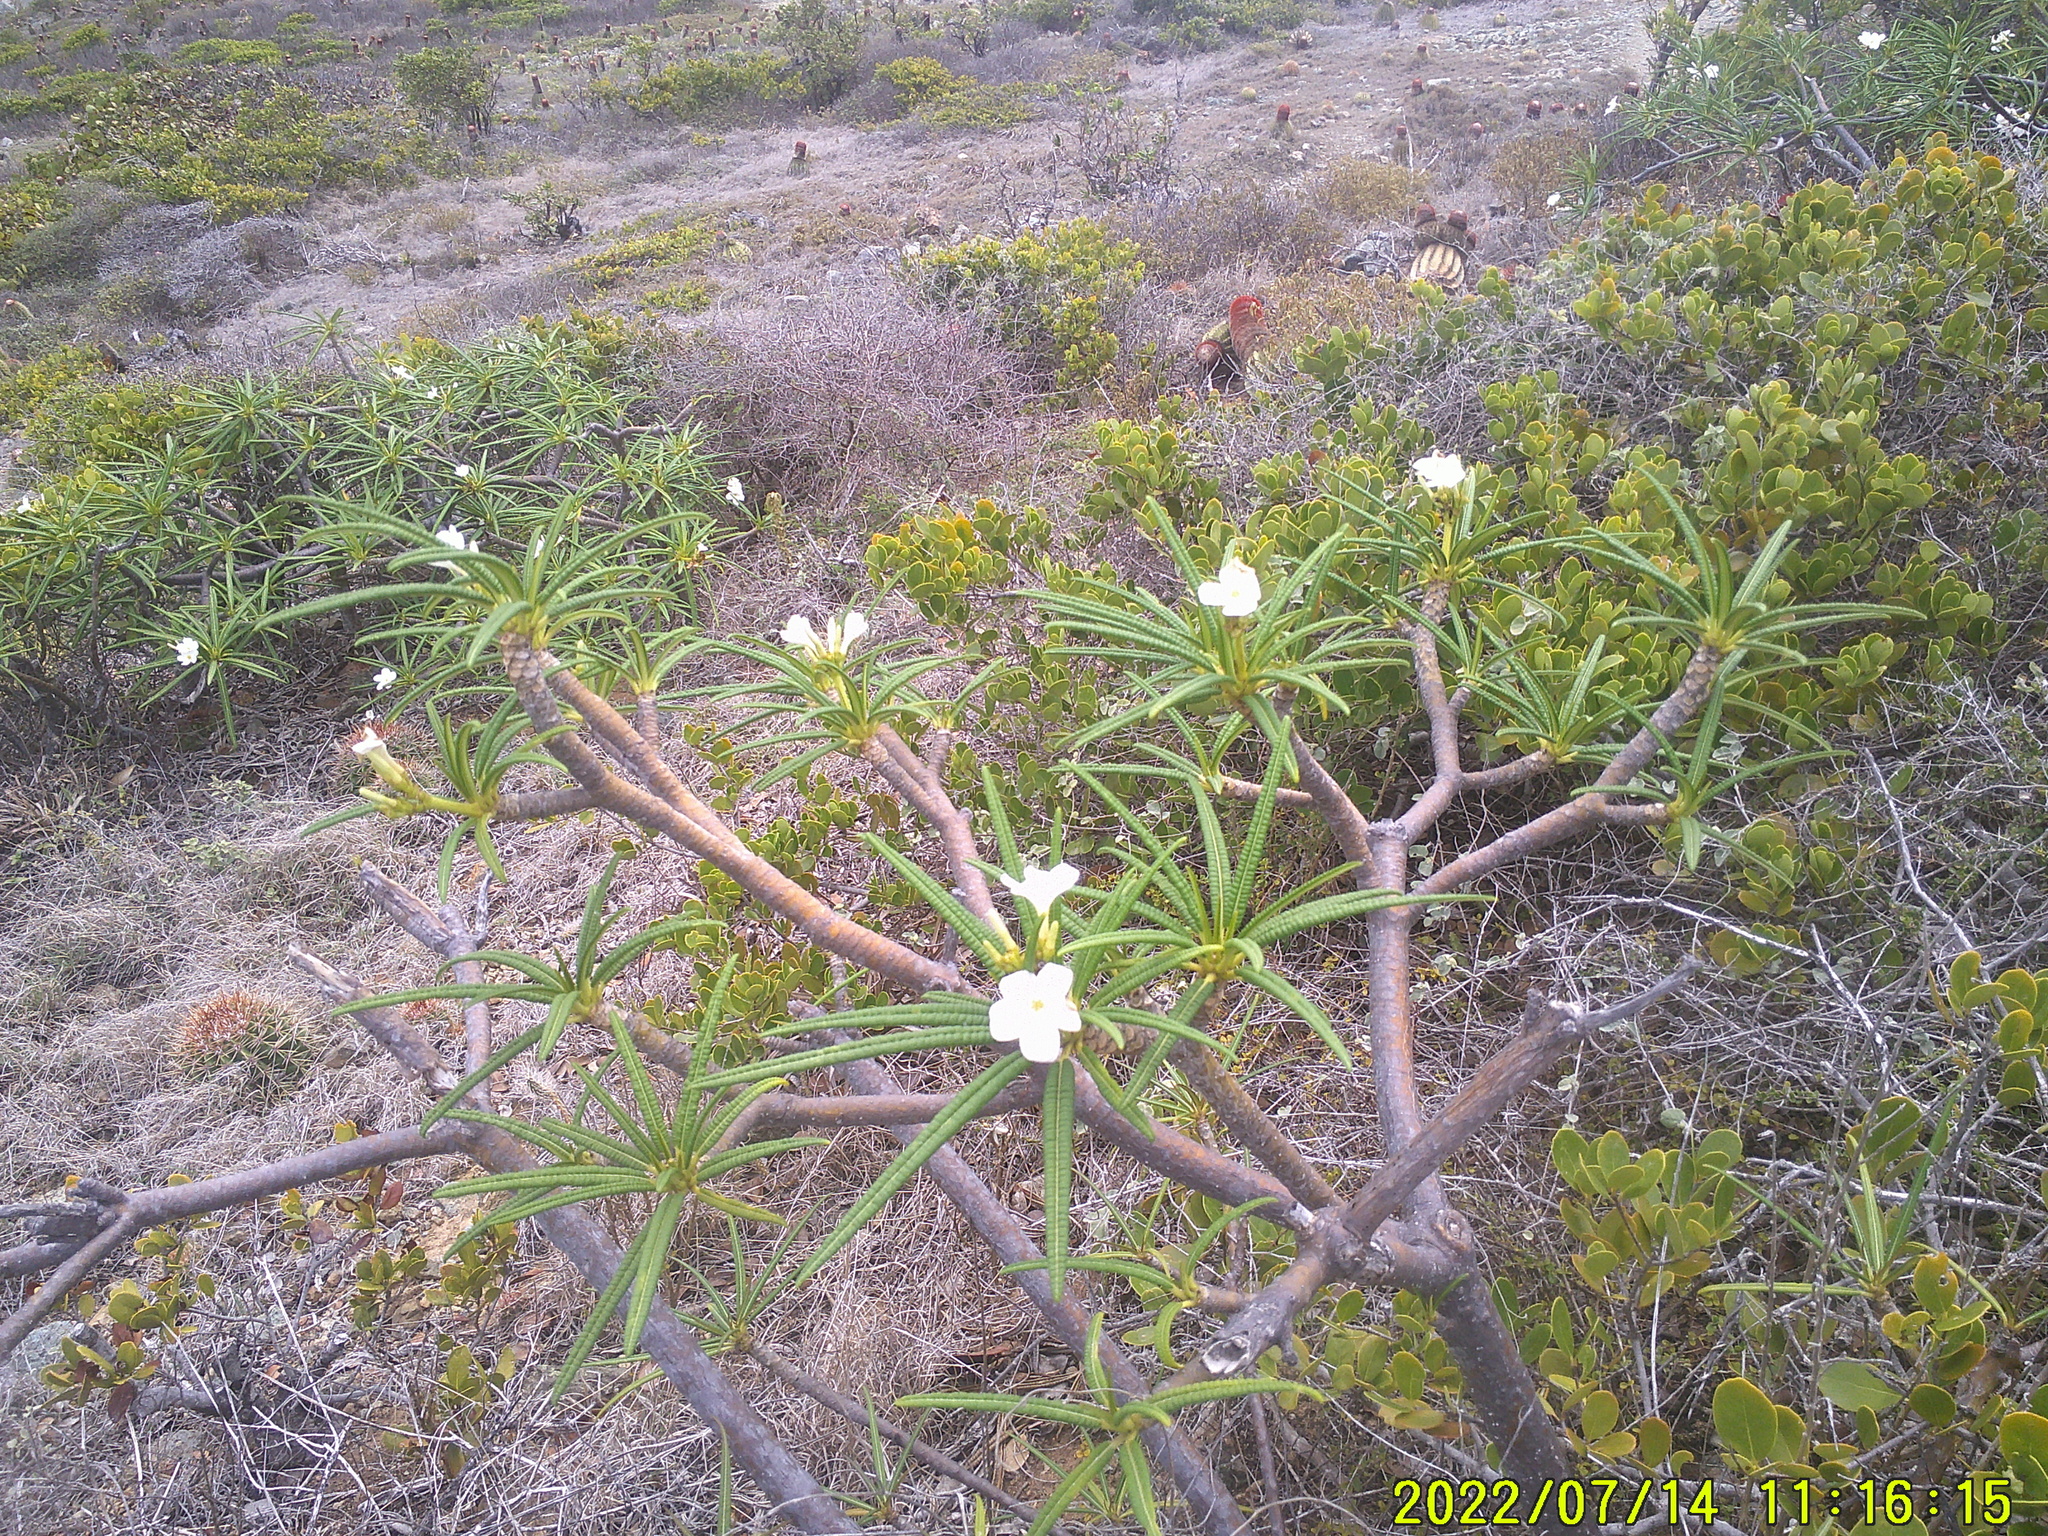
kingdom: Plantae
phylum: Tracheophyta
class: Magnoliopsida
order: Gentianales
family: Apocynaceae
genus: Plumeria
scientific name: Plumeria alba
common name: Wild frangipani
